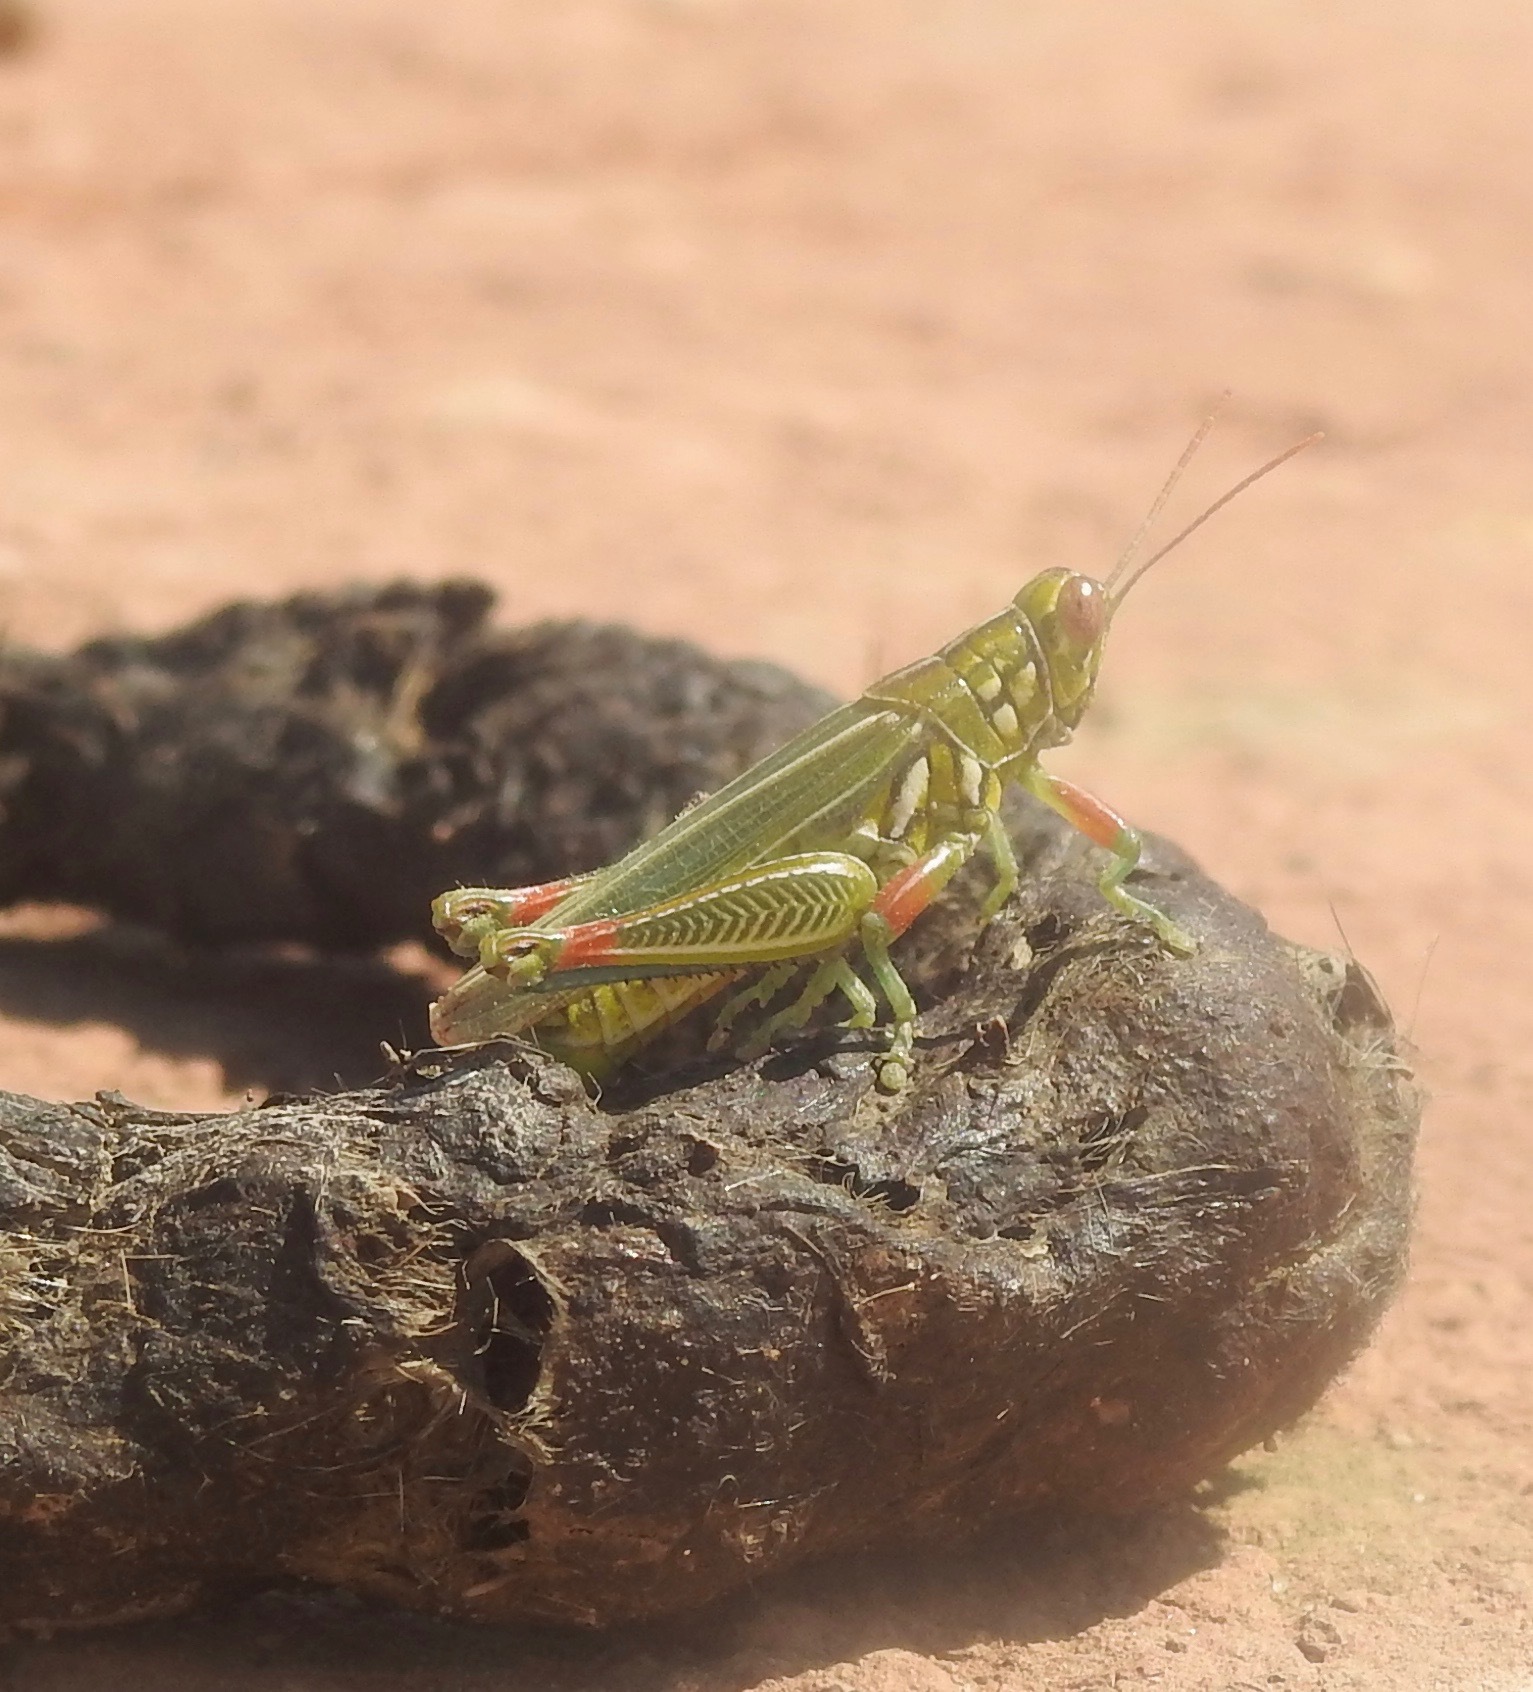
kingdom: Animalia
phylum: Arthropoda
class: Insecta
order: Orthoptera
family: Acrididae
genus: Hesperotettix
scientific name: Hesperotettix viridis
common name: Meadow purple-striped grasshopper
